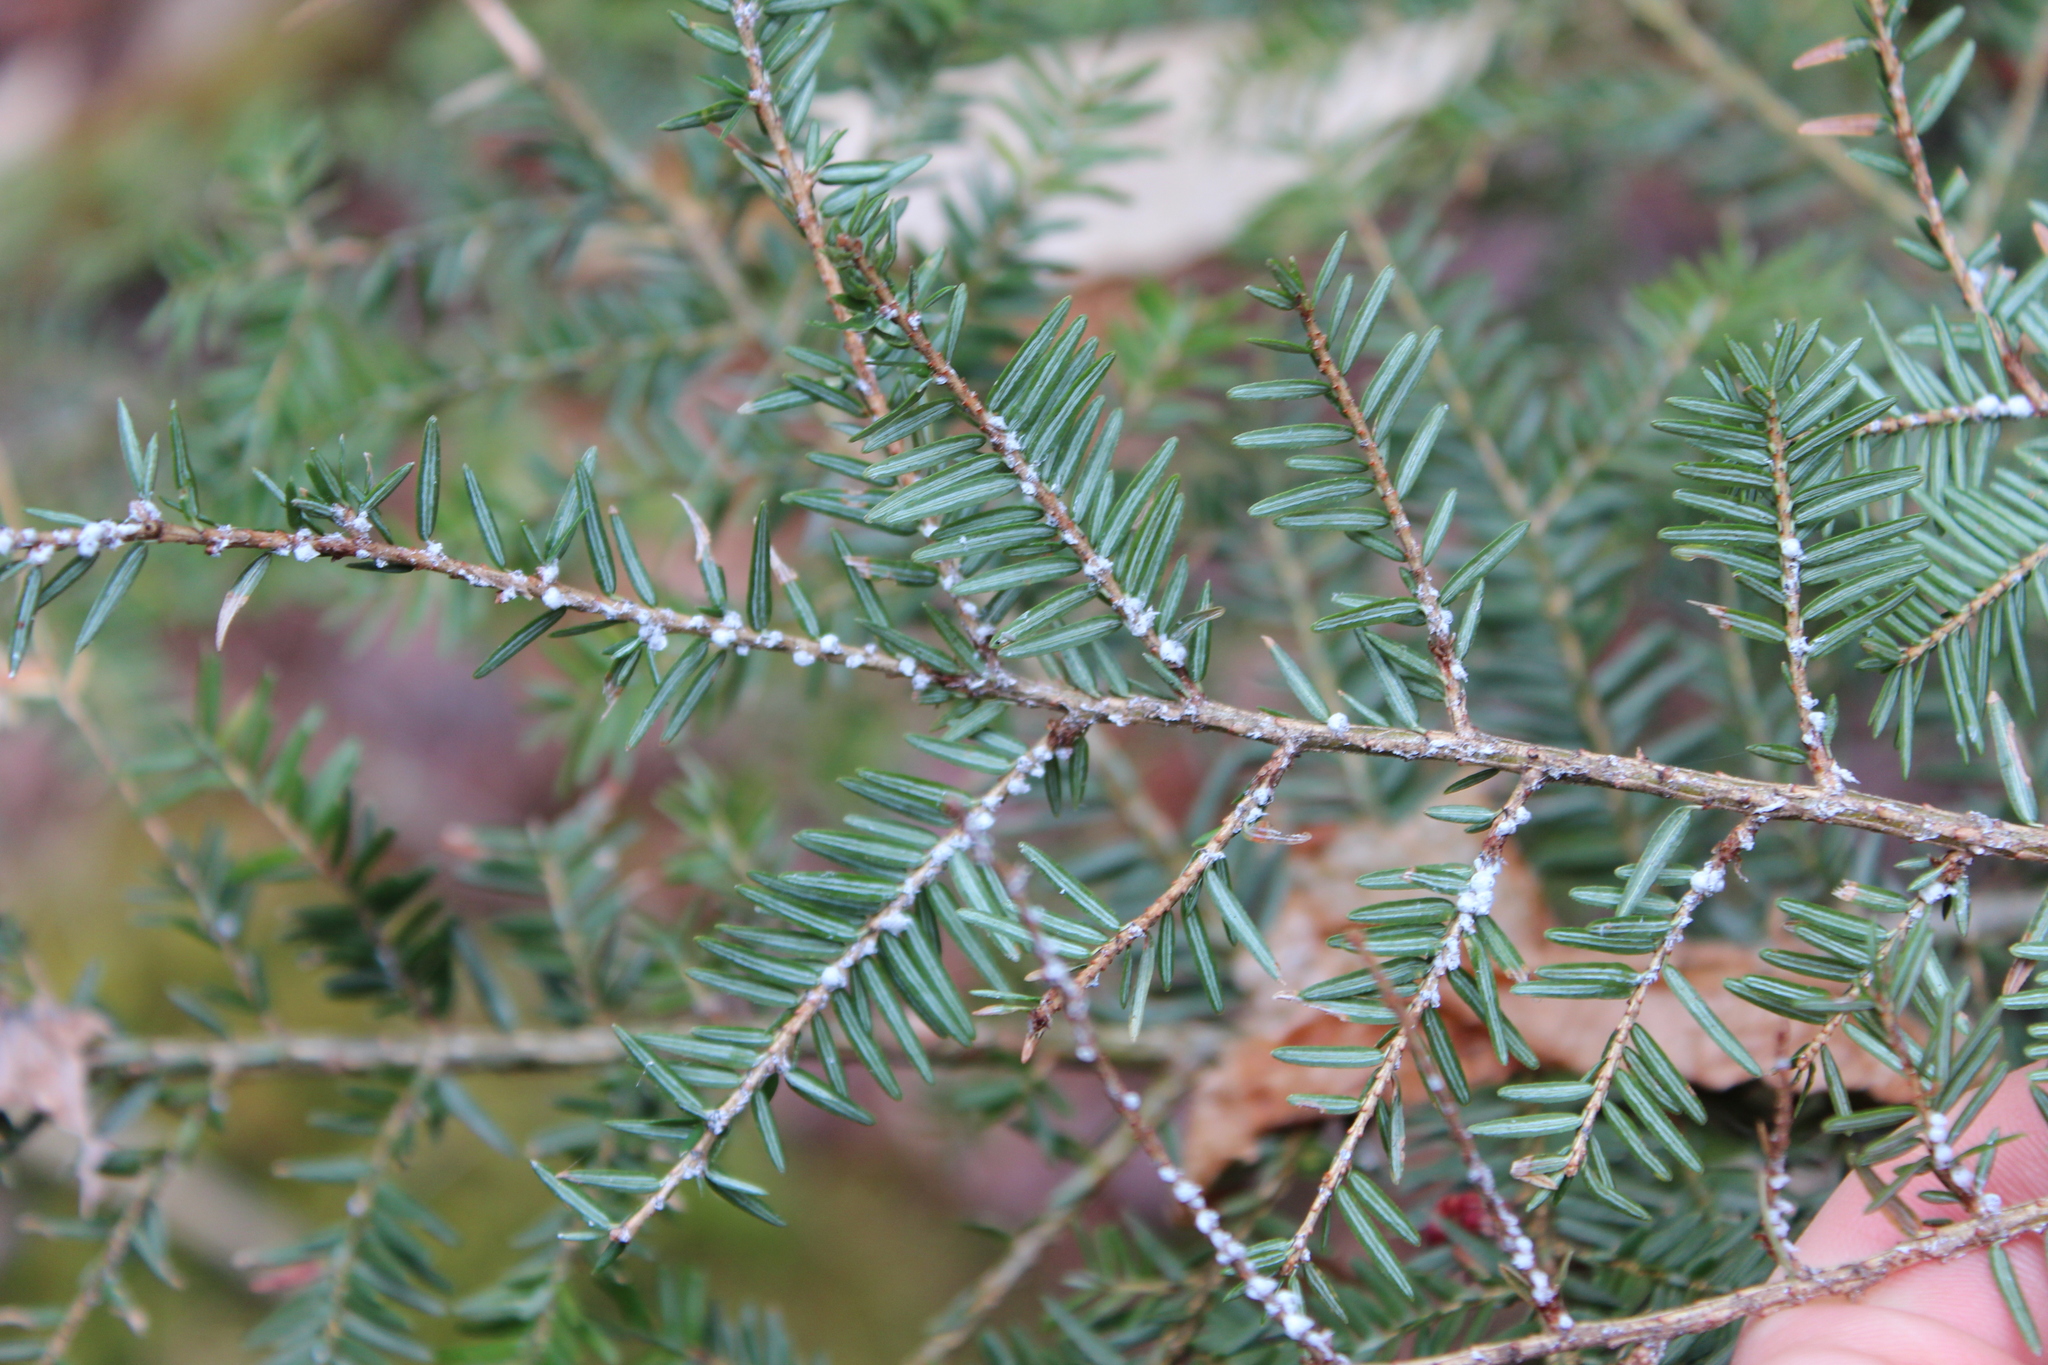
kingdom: Plantae
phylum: Tracheophyta
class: Pinopsida
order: Pinales
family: Pinaceae
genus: Tsuga
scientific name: Tsuga canadensis
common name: Eastern hemlock
